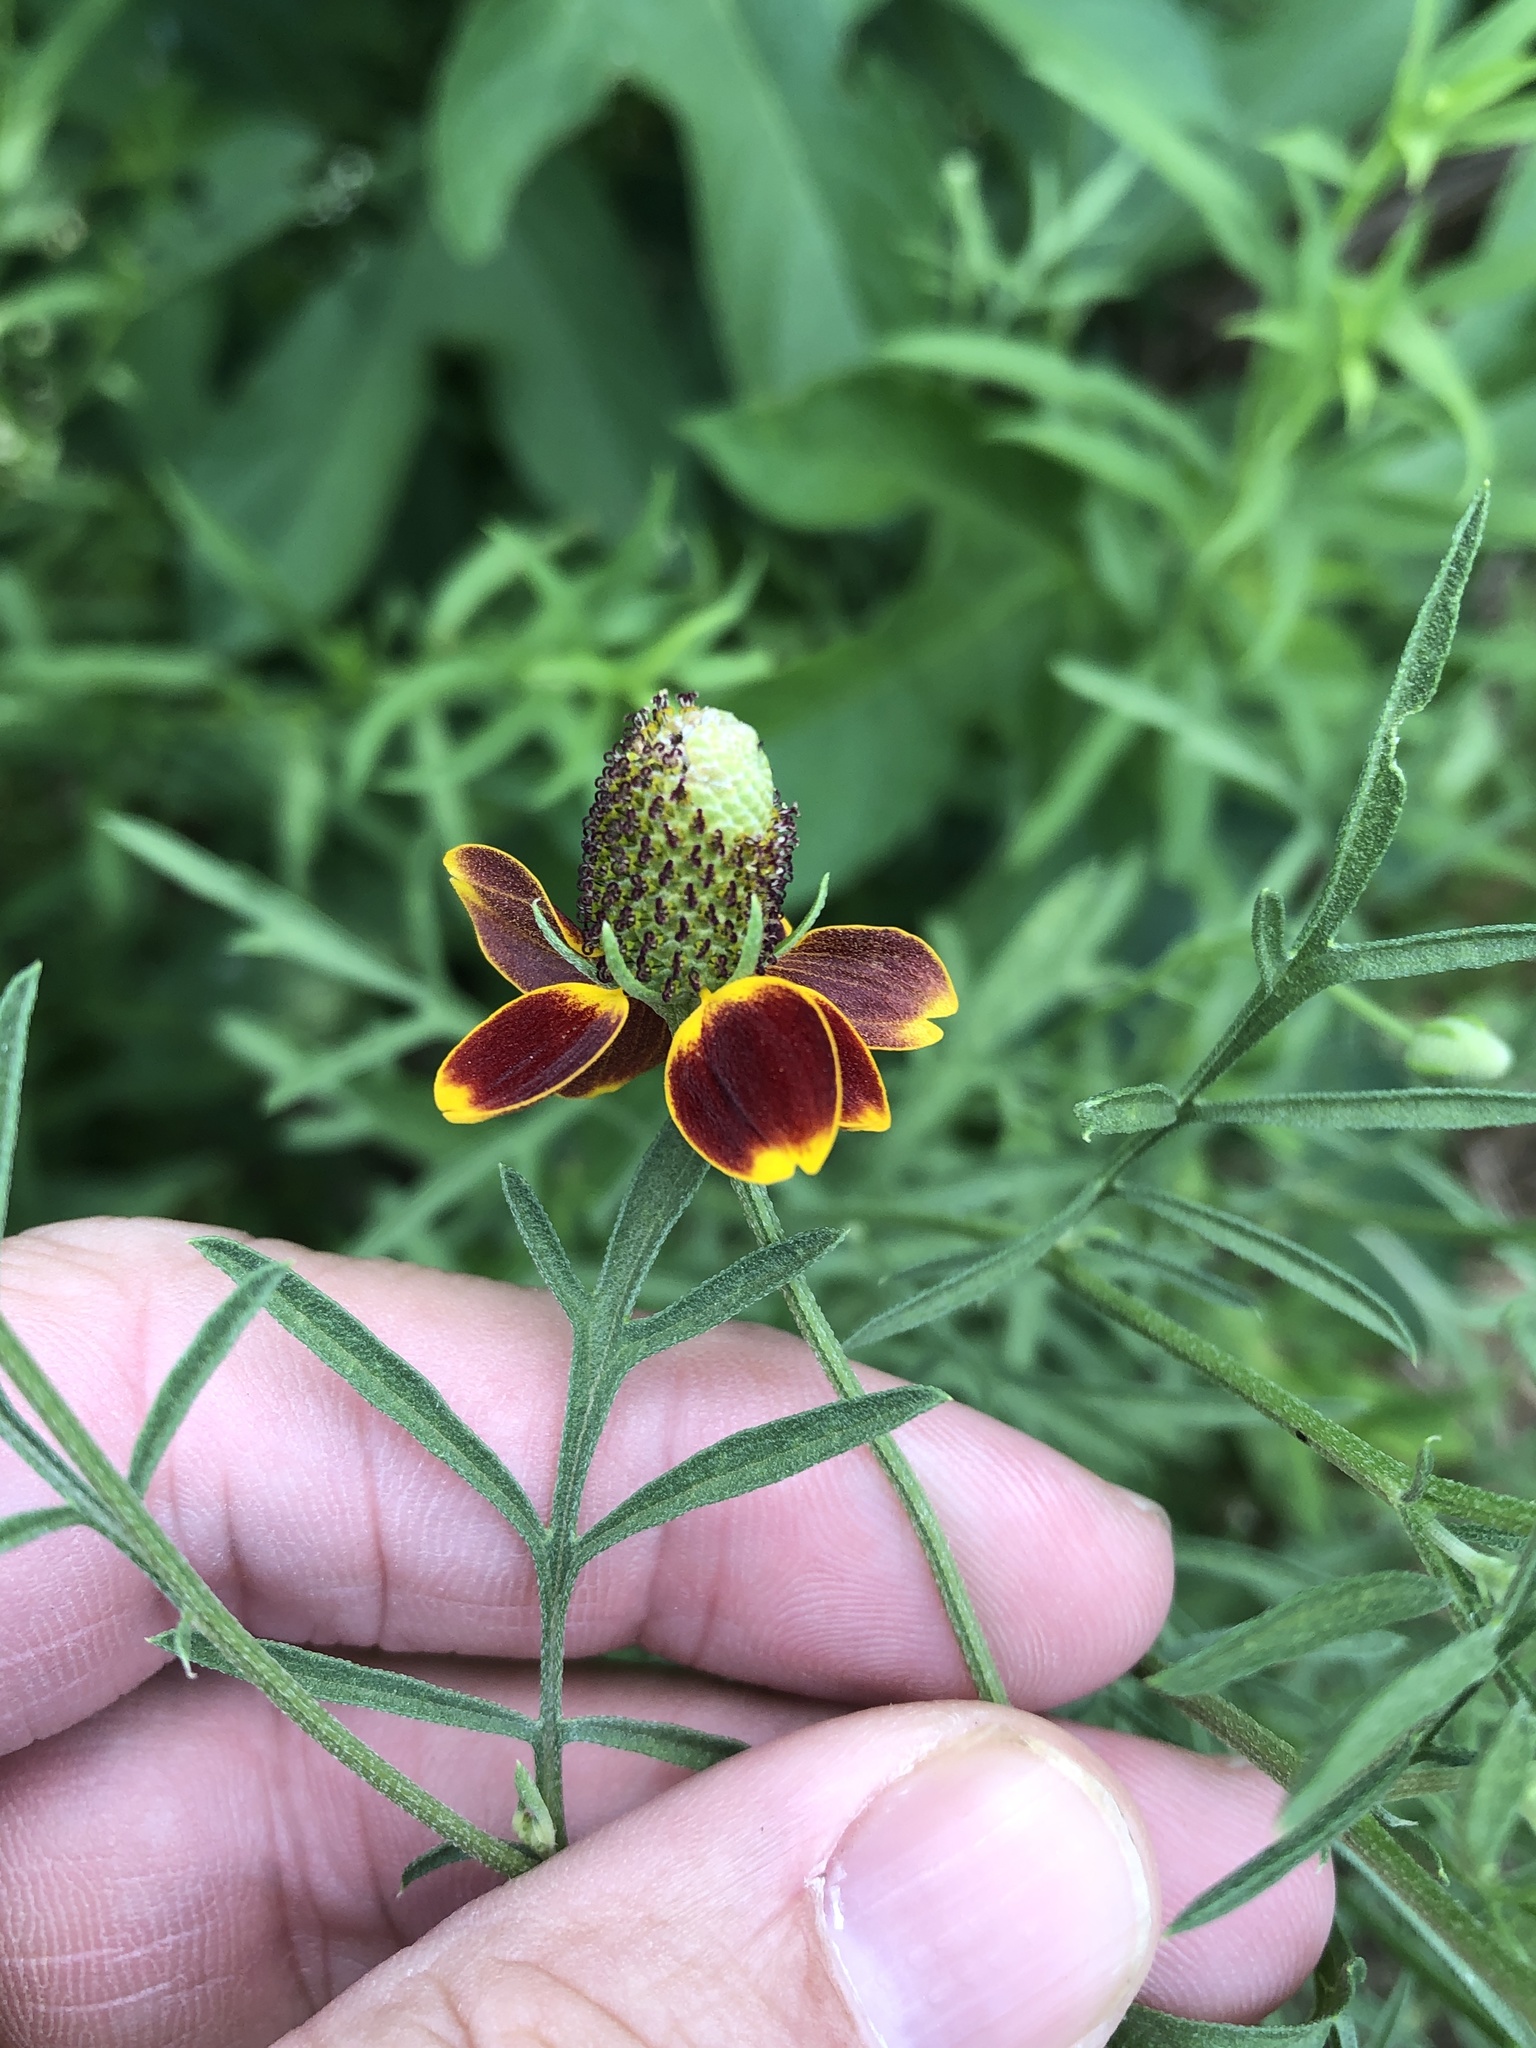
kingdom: Plantae
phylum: Tracheophyta
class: Magnoliopsida
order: Asterales
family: Asteraceae
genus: Ratibida
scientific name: Ratibida columnifera
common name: Prairie coneflower
